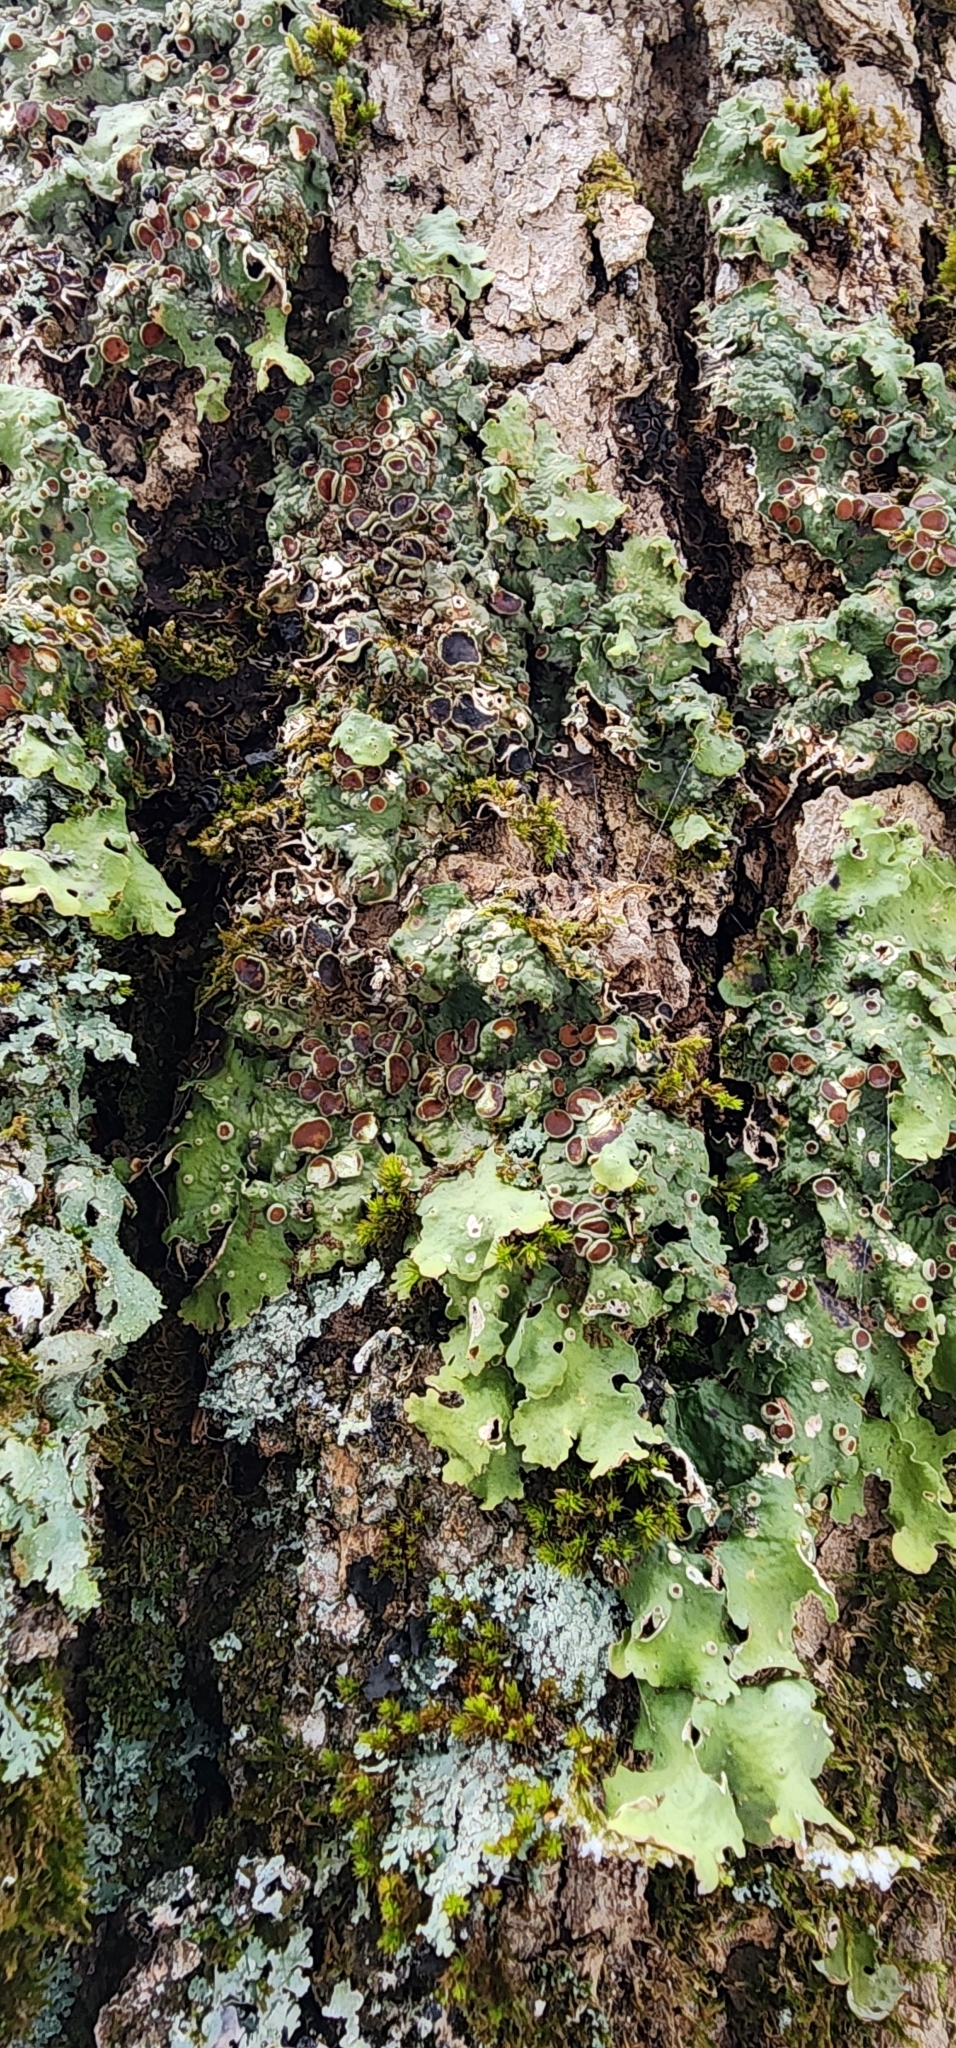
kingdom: Fungi
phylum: Ascomycota
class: Lecanoromycetes
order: Peltigerales
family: Lobariaceae
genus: Ricasolia
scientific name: Ricasolia quercizans
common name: Smooth lungwort
